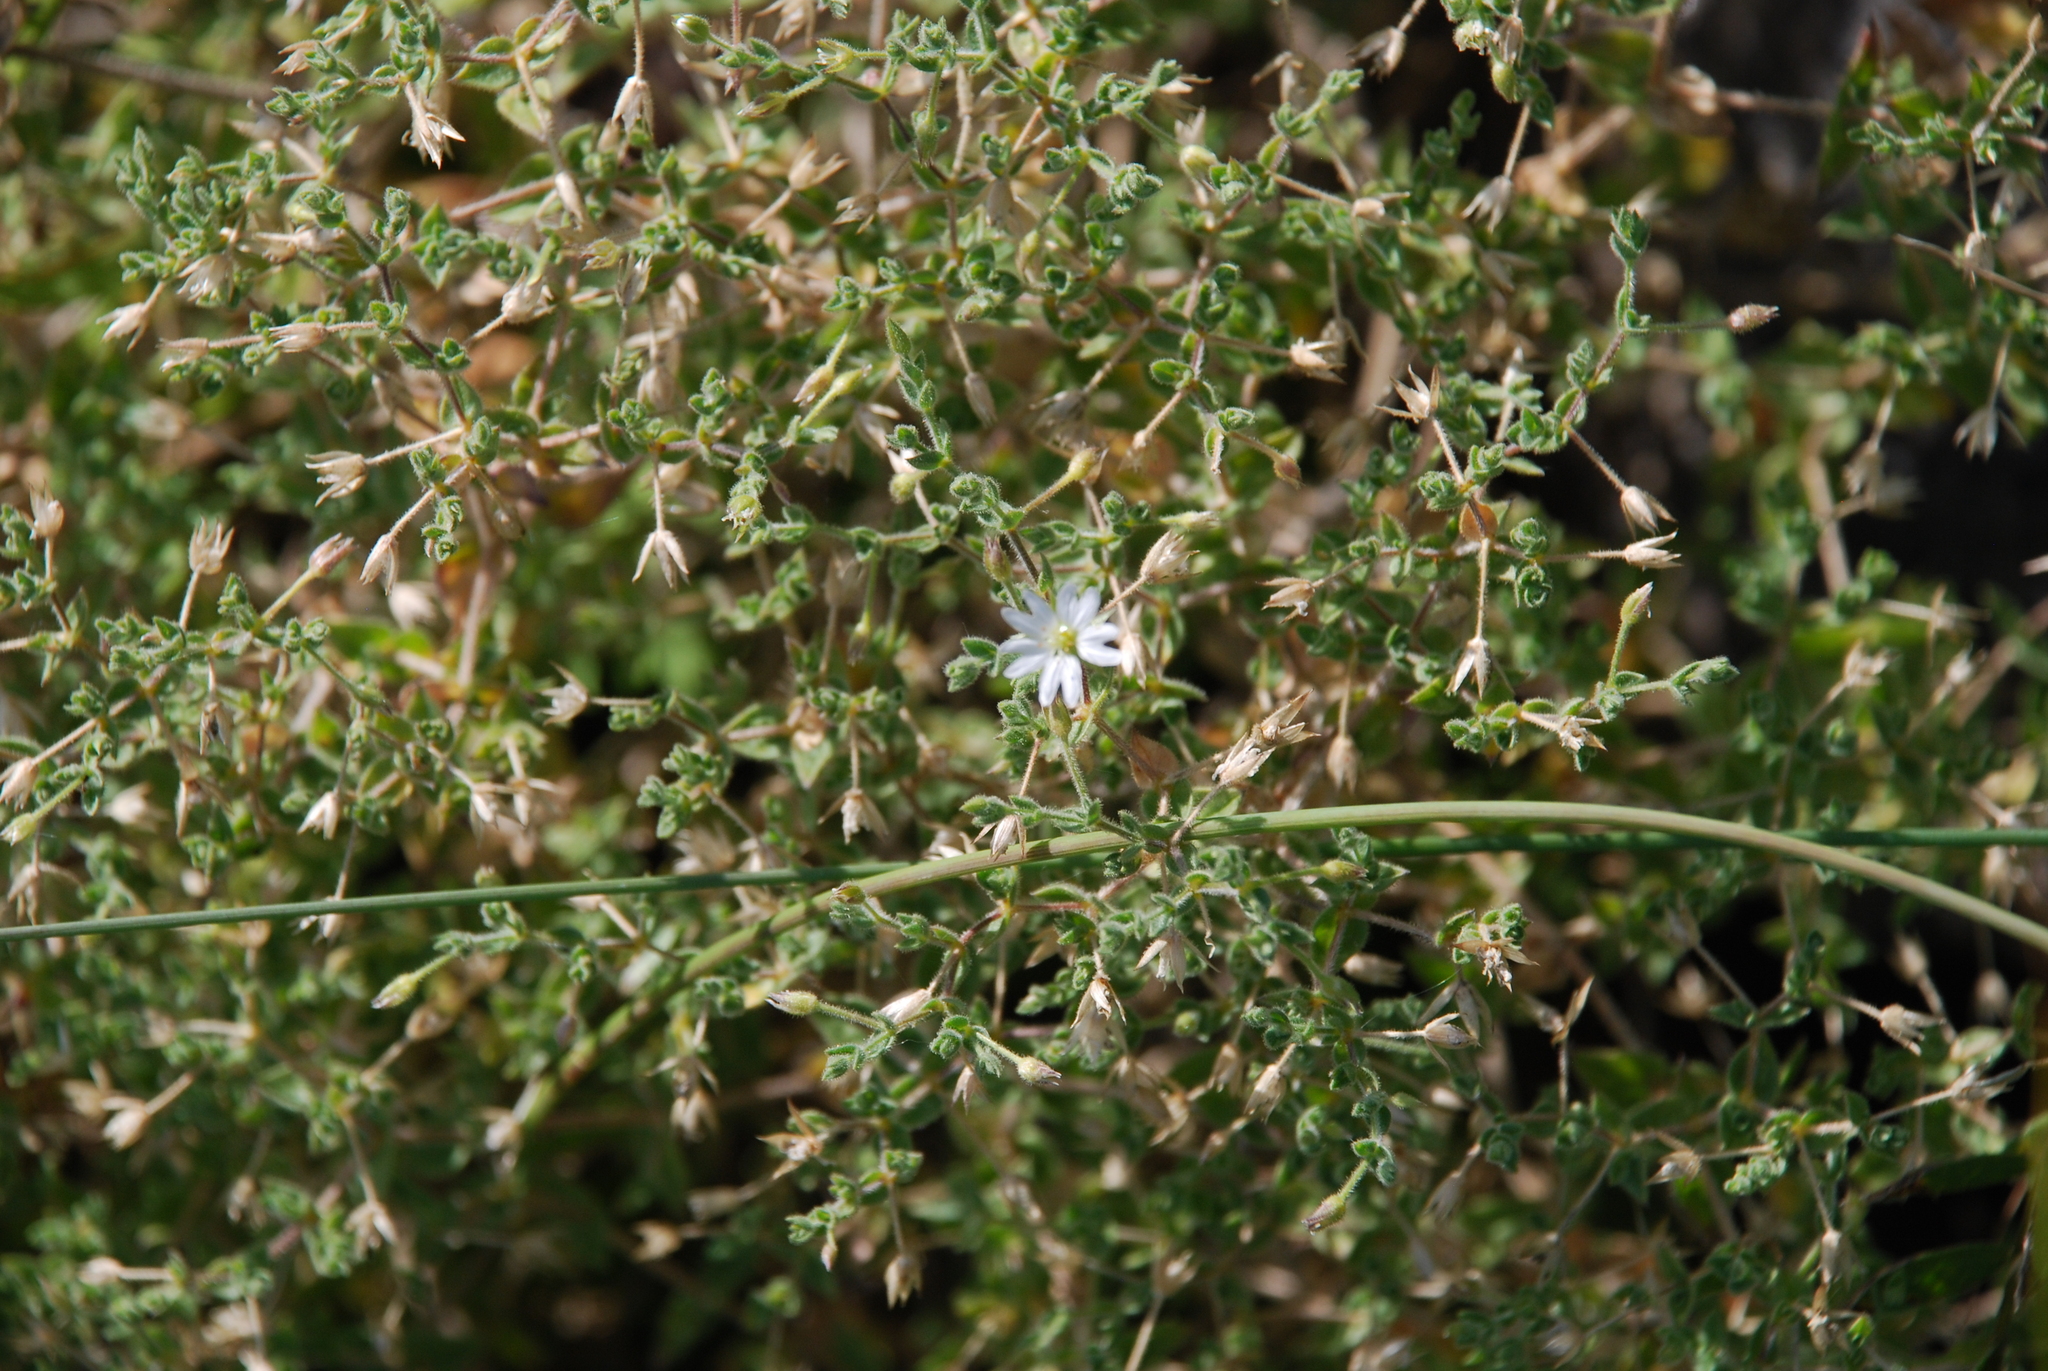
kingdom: Plantae
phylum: Tracheophyta
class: Magnoliopsida
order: Caryophyllales
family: Caryophyllaceae
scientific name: Caryophyllaceae
